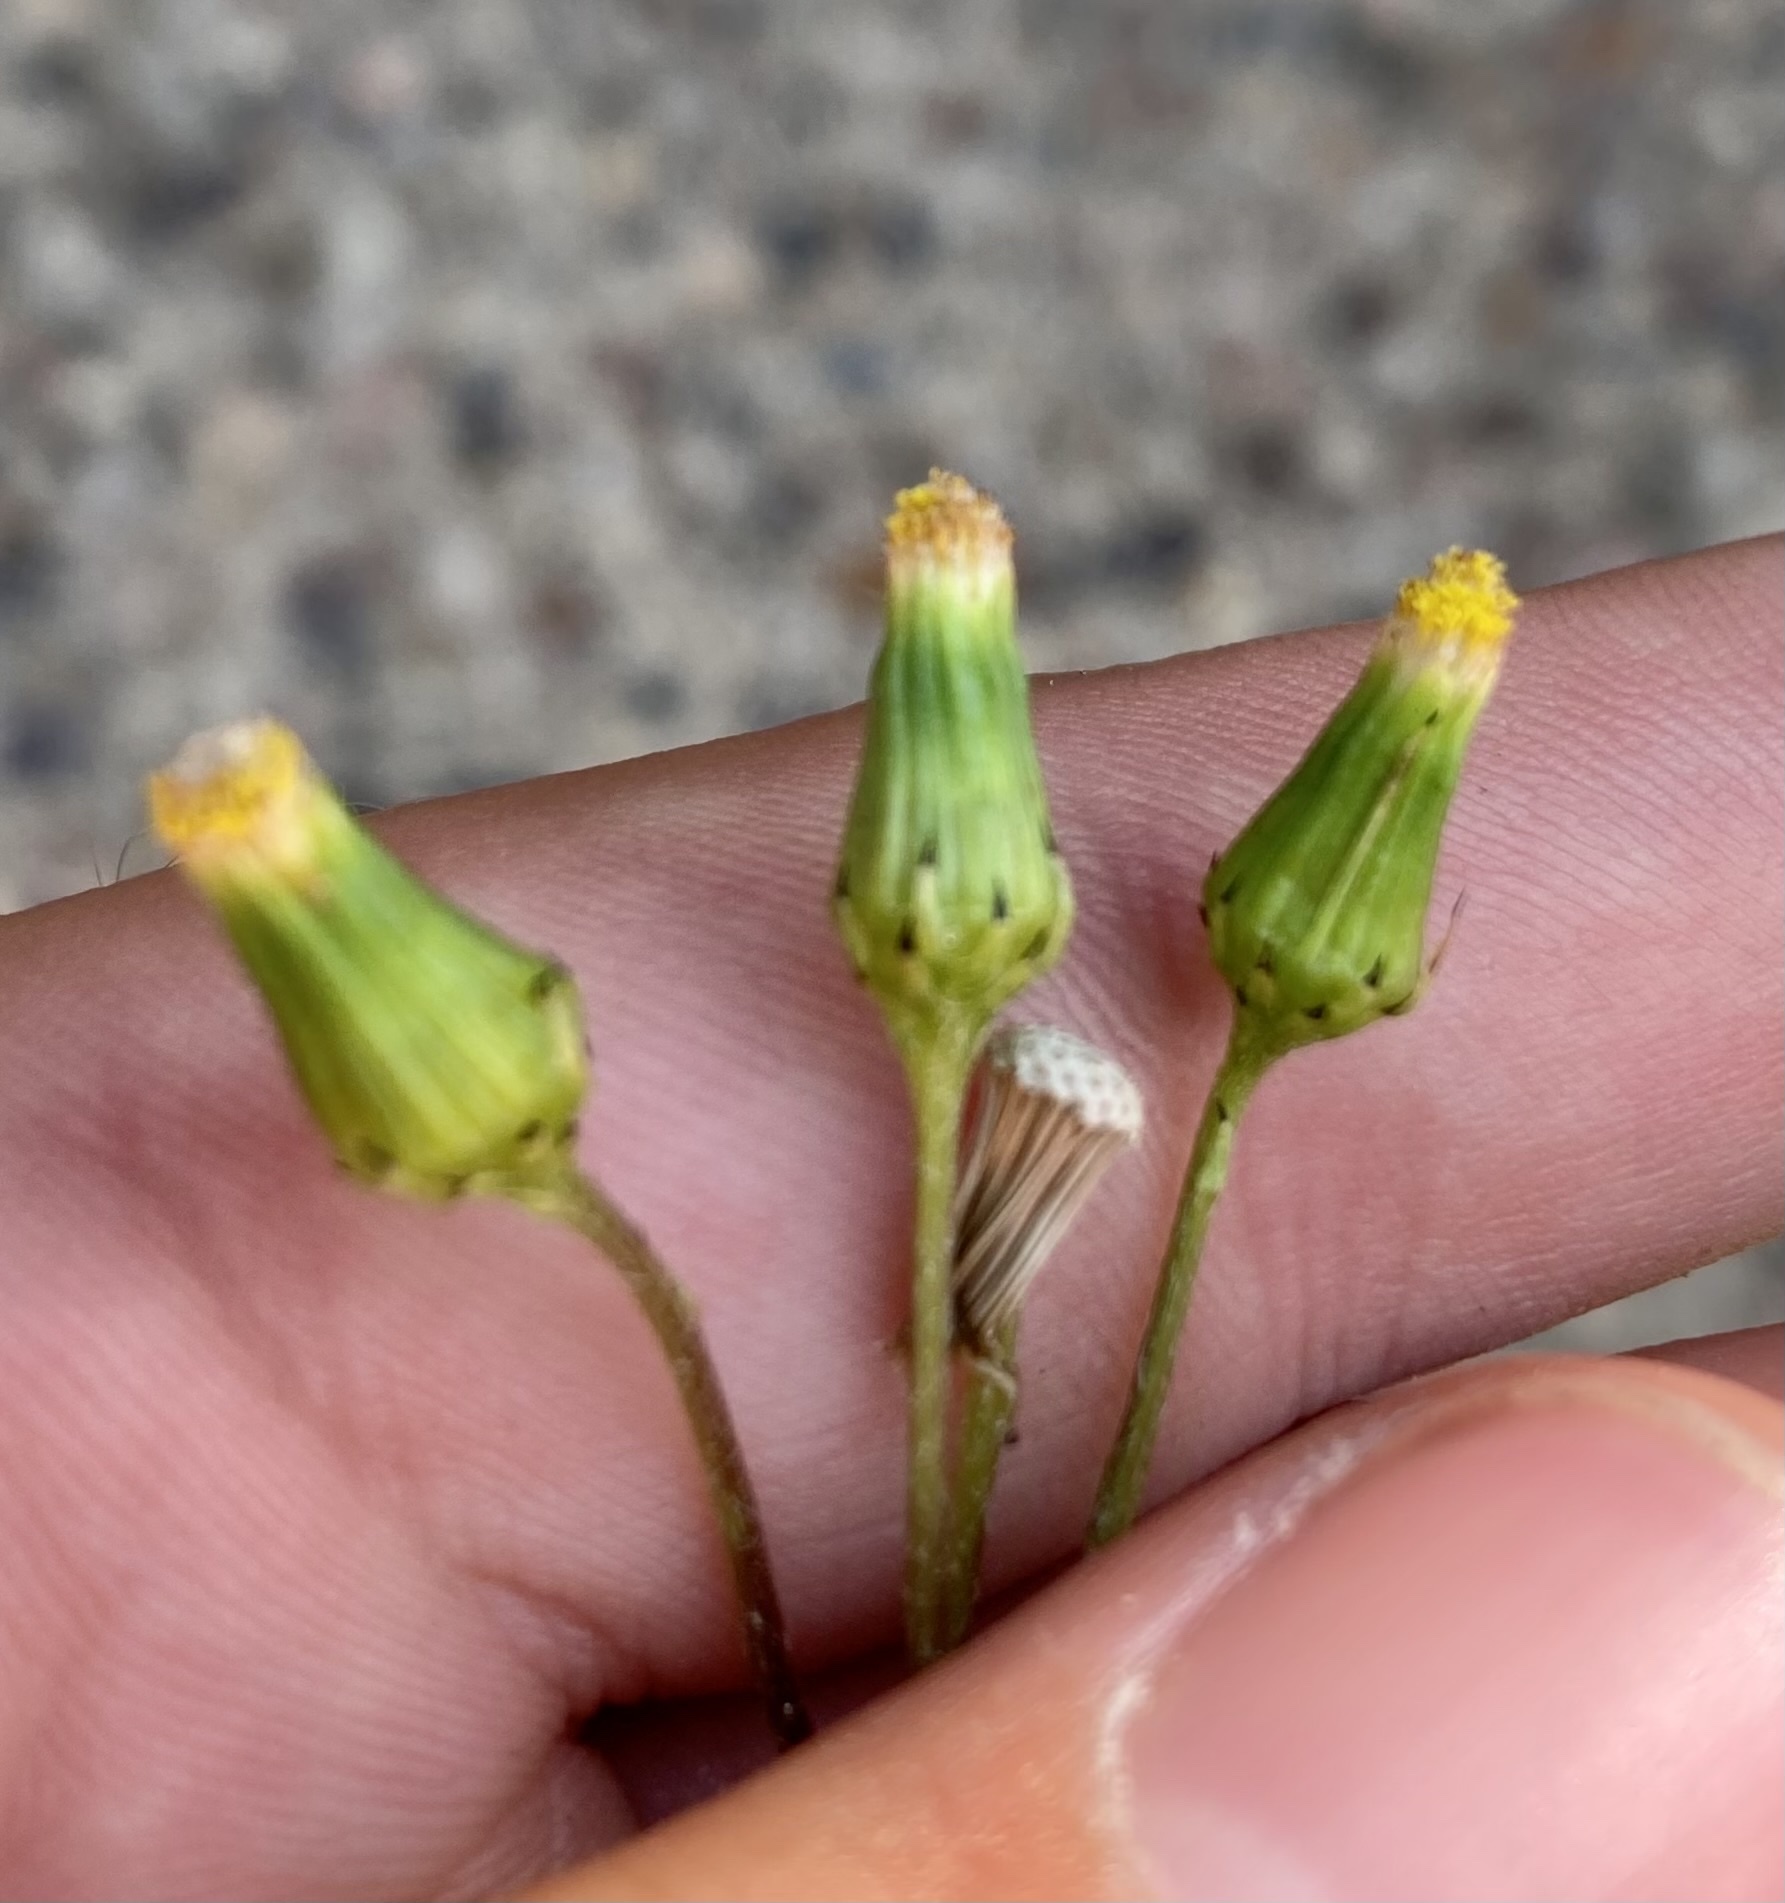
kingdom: Plantae
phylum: Tracheophyta
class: Magnoliopsida
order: Asterales
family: Asteraceae
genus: Senecio
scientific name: Senecio vulgaris
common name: Old-man-in-the-spring
